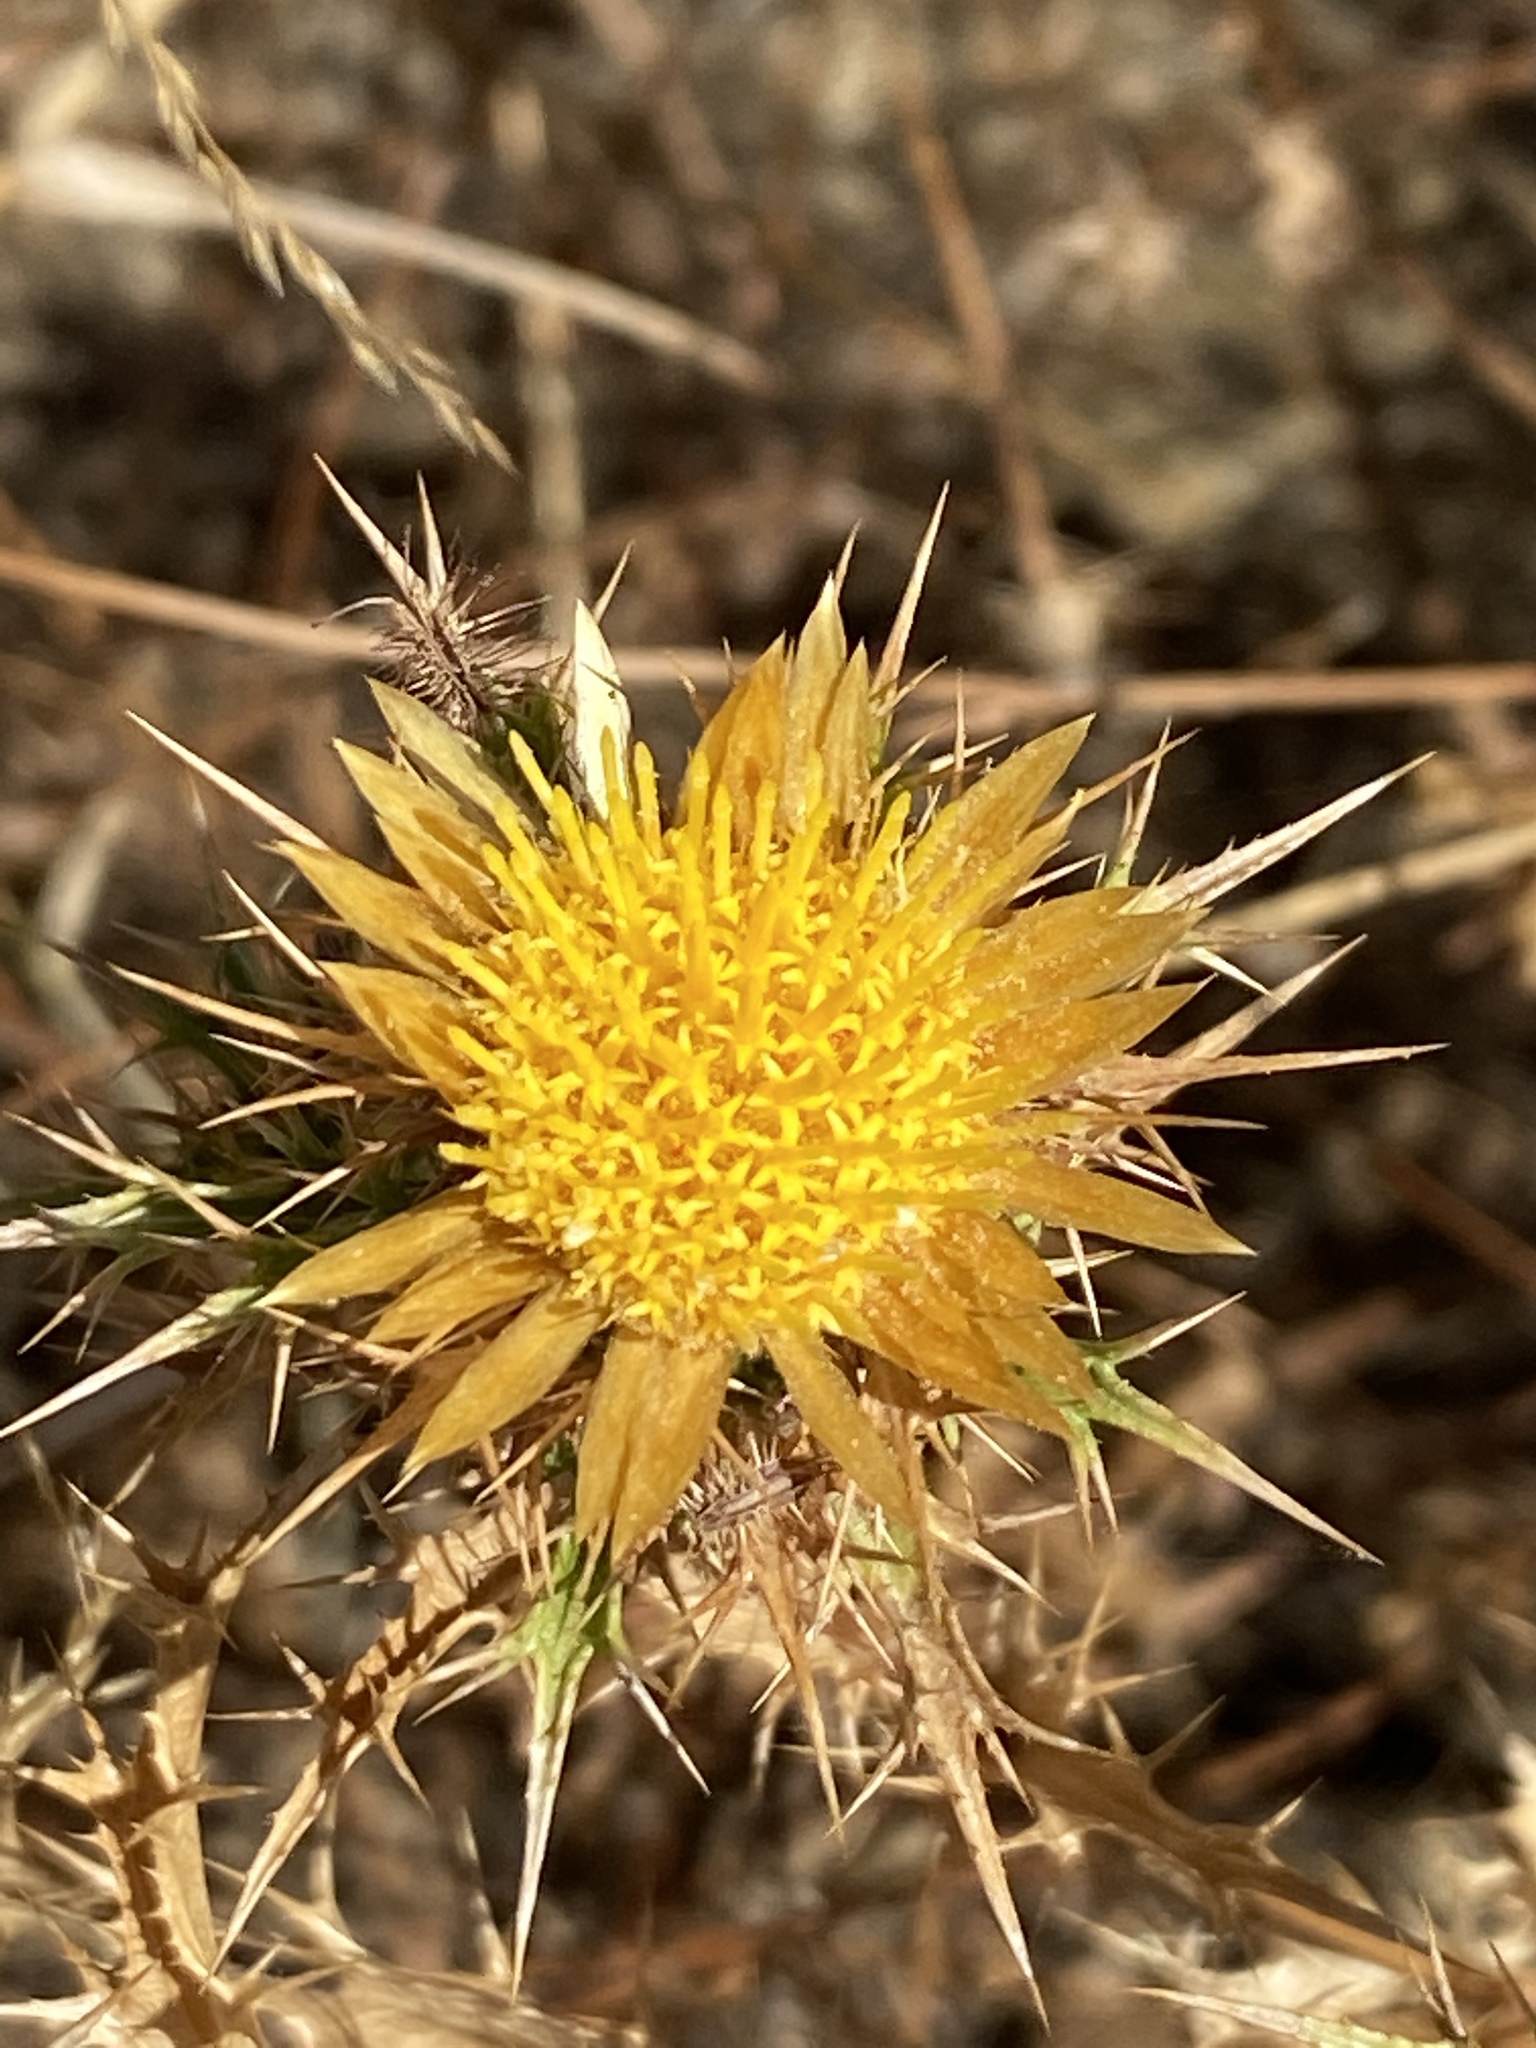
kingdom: Plantae
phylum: Tracheophyta
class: Magnoliopsida
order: Asterales
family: Asteraceae
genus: Carlina
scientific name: Carlina hispanica
